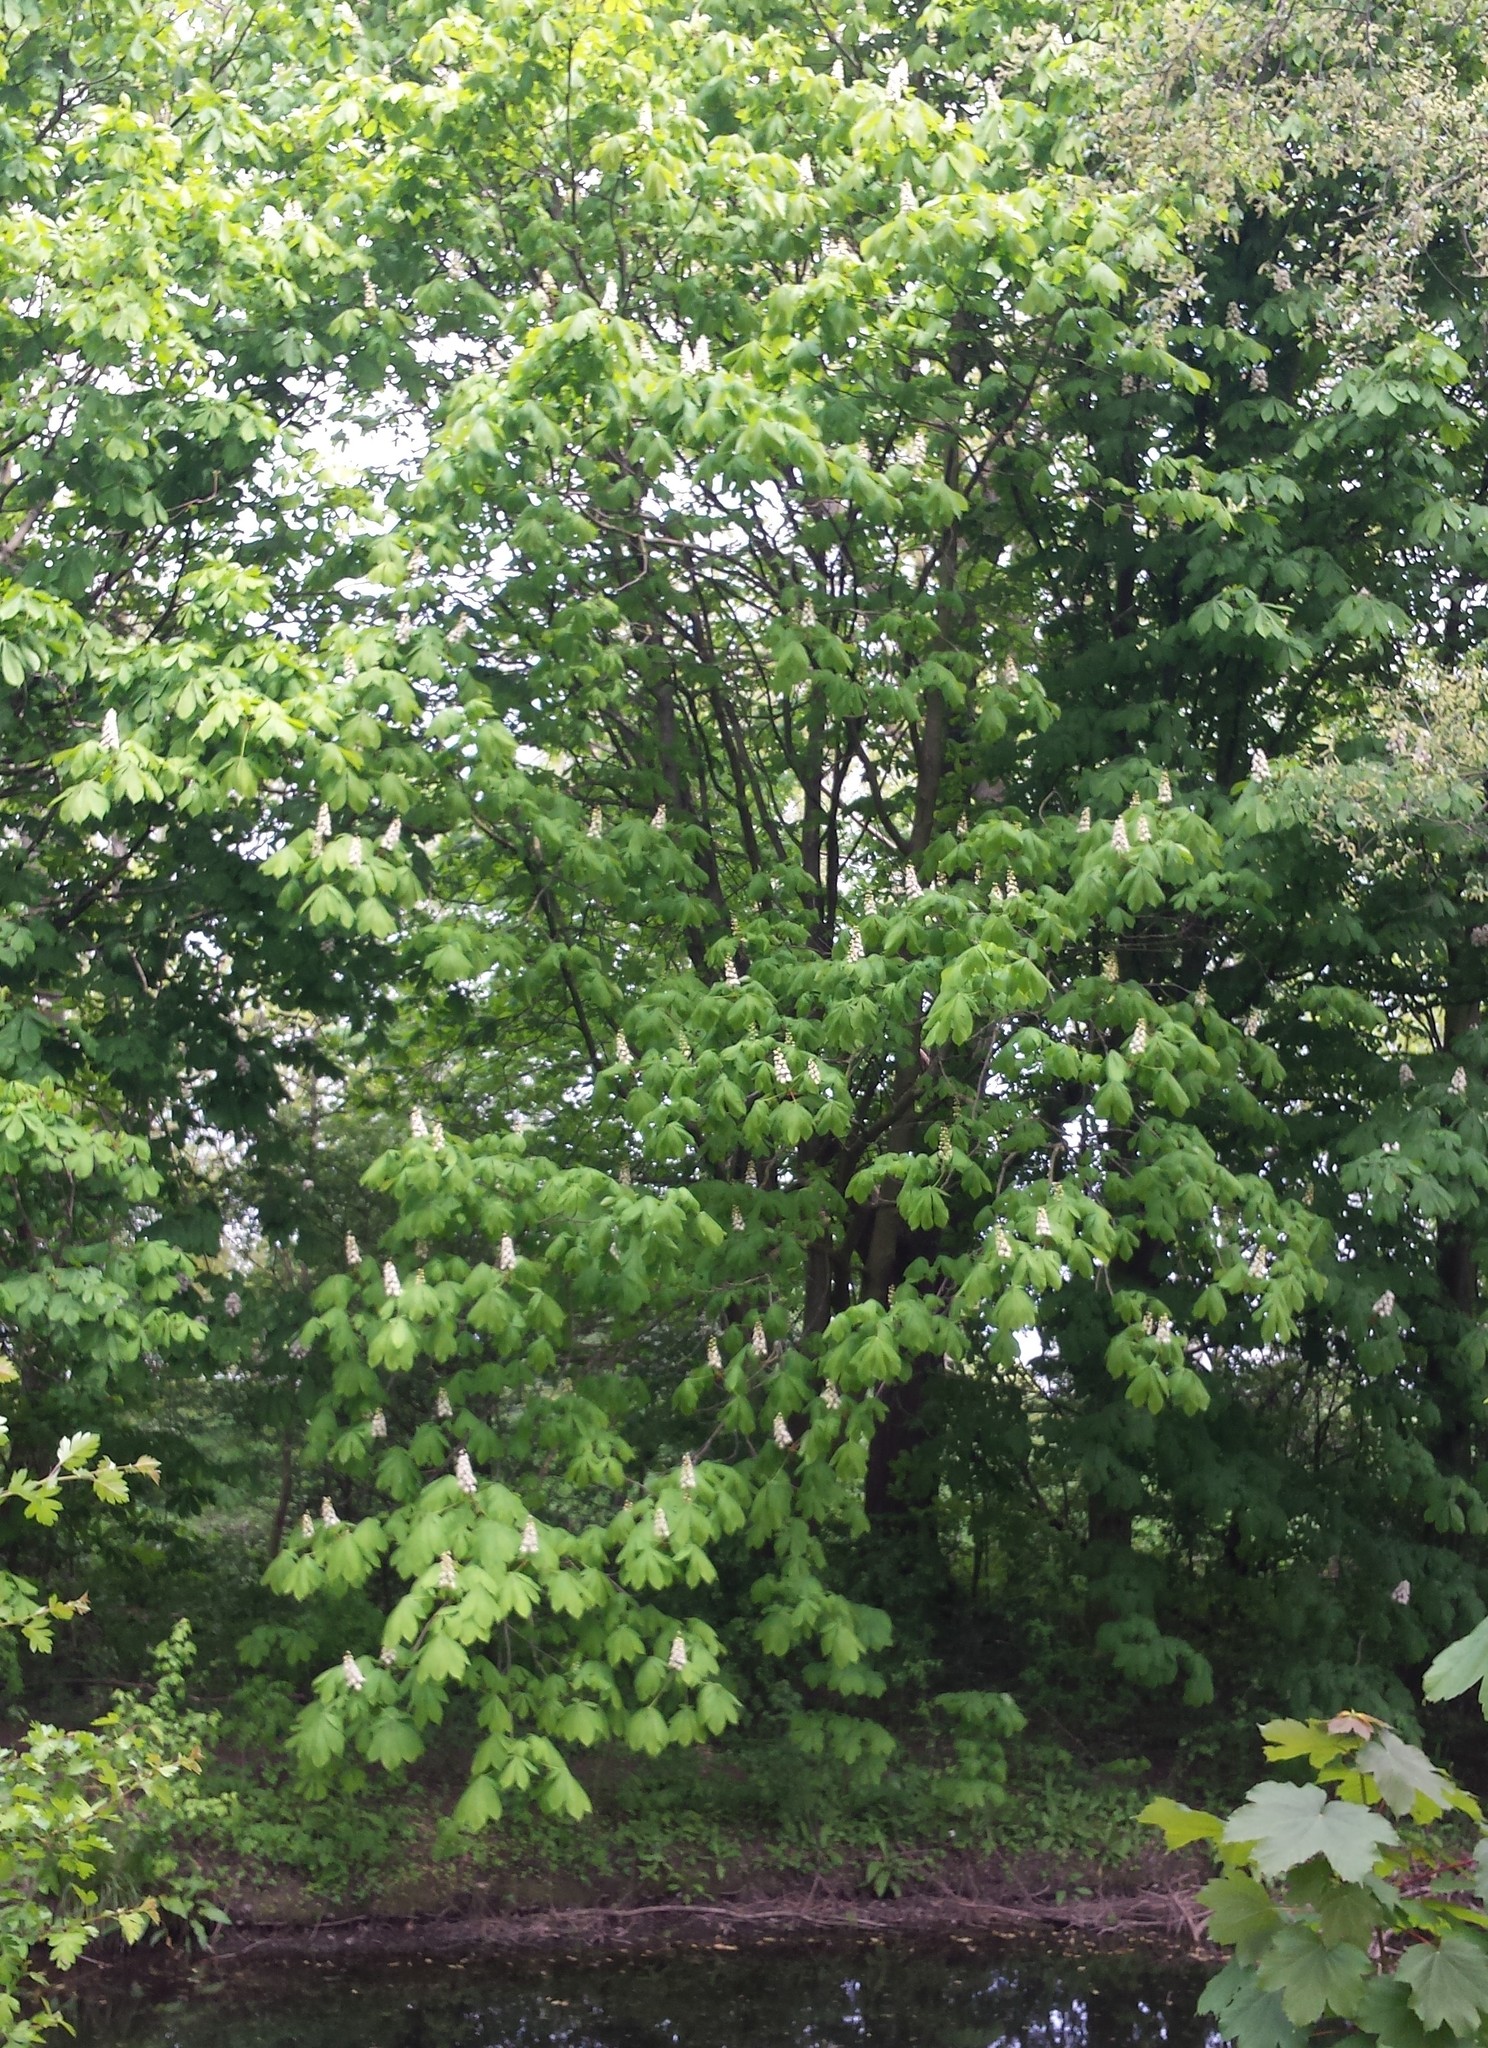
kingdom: Plantae
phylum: Tracheophyta
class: Magnoliopsida
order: Sapindales
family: Sapindaceae
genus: Aesculus
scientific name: Aesculus hippocastanum
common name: Horse-chestnut
